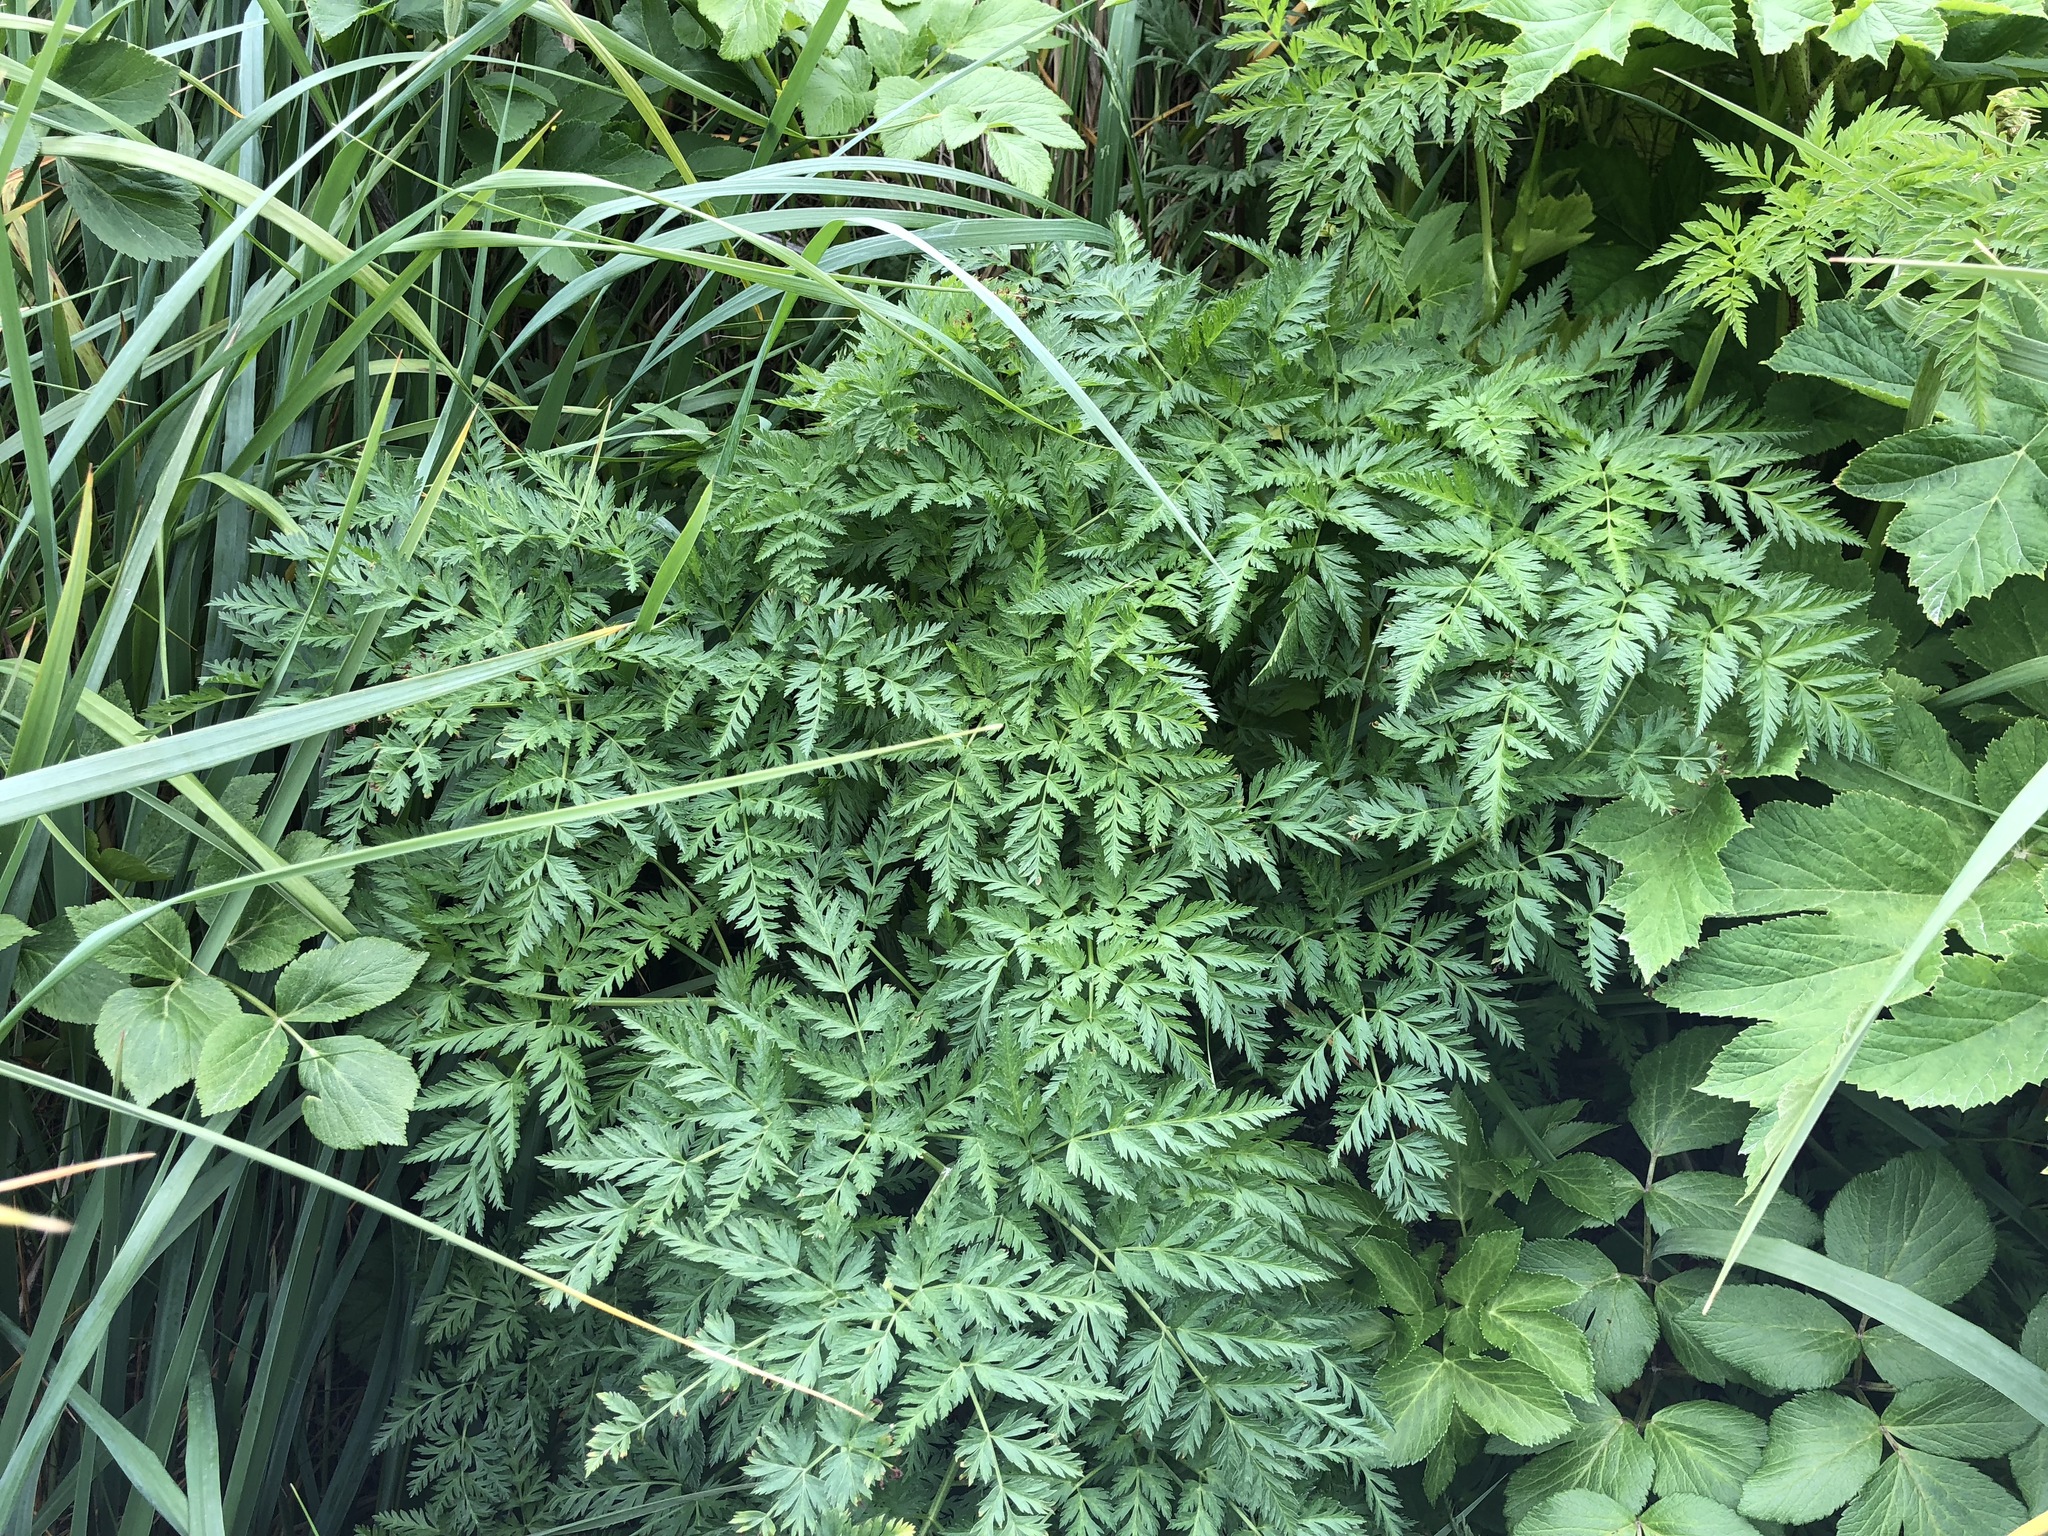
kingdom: Plantae
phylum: Tracheophyta
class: Magnoliopsida
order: Apiales
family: Apiaceae
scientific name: Apiaceae
